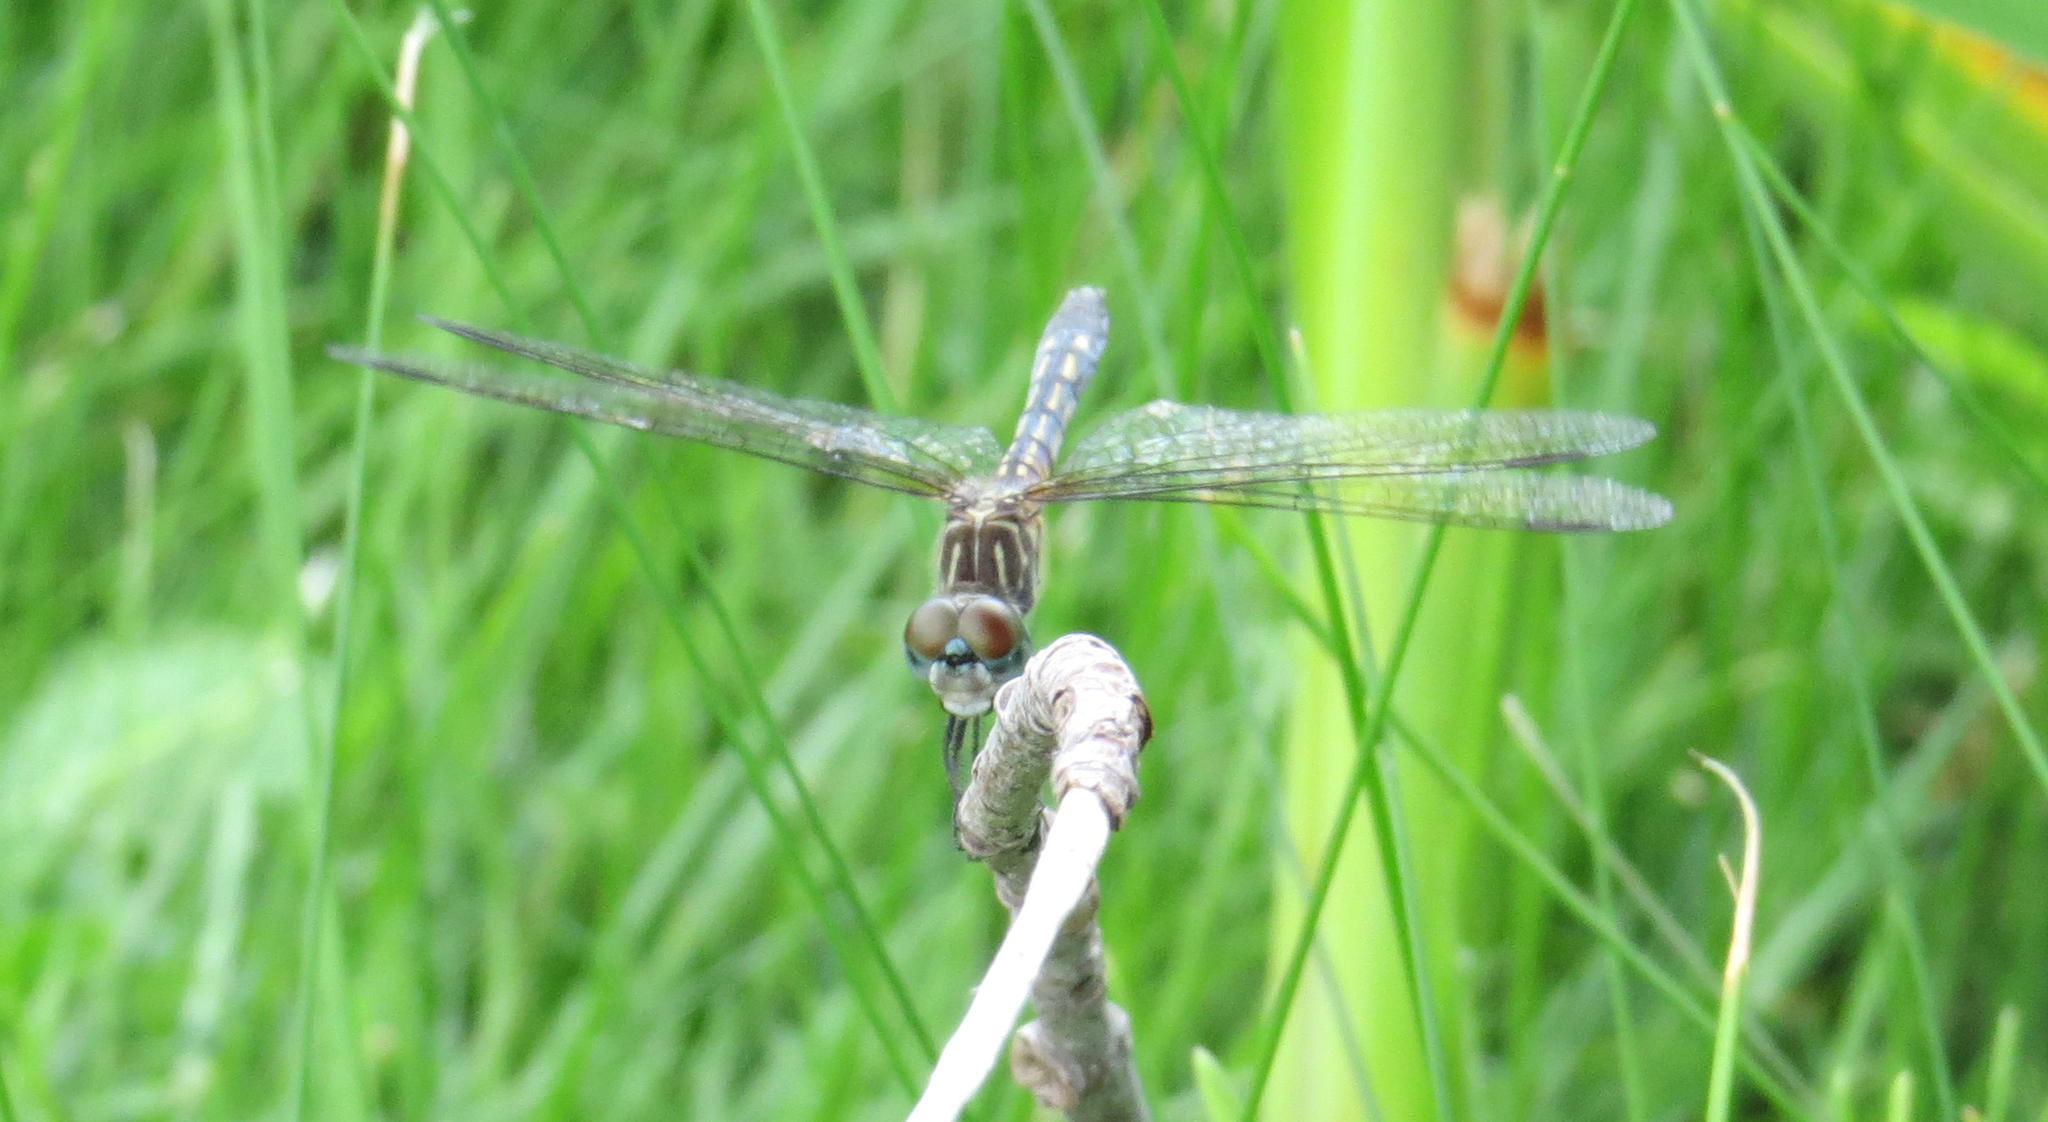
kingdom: Animalia
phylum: Arthropoda
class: Insecta
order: Odonata
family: Libellulidae
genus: Pachydiplax
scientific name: Pachydiplax longipennis
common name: Blue dasher
